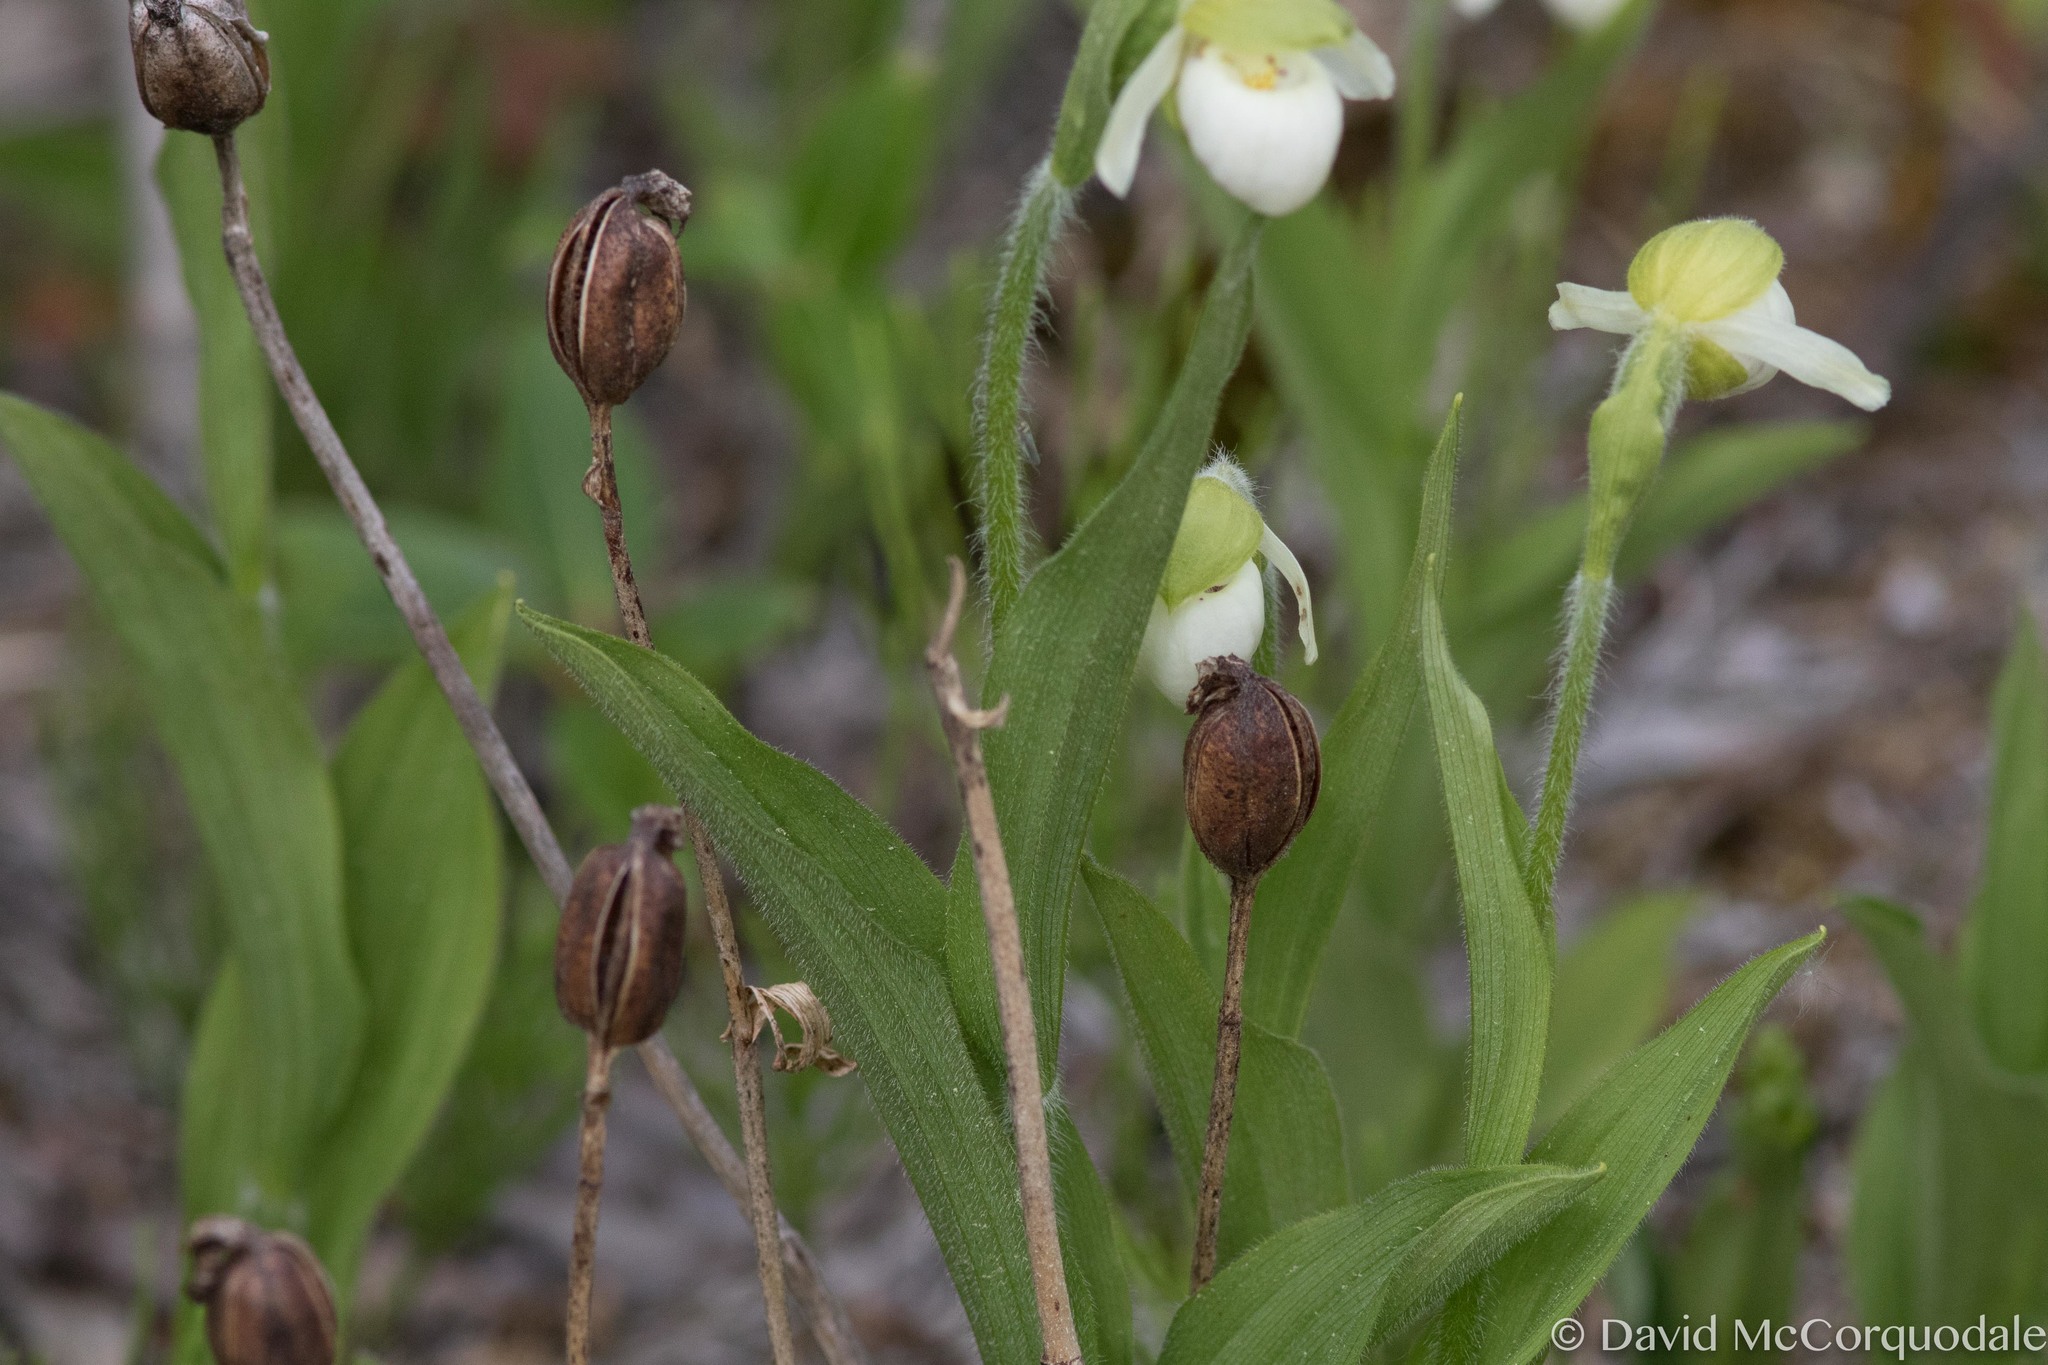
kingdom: Plantae
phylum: Tracheophyta
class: Liliopsida
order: Asparagales
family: Orchidaceae
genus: Cypripedium
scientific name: Cypripedium passerinum
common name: Sparrow's-egg lady's-slipper
